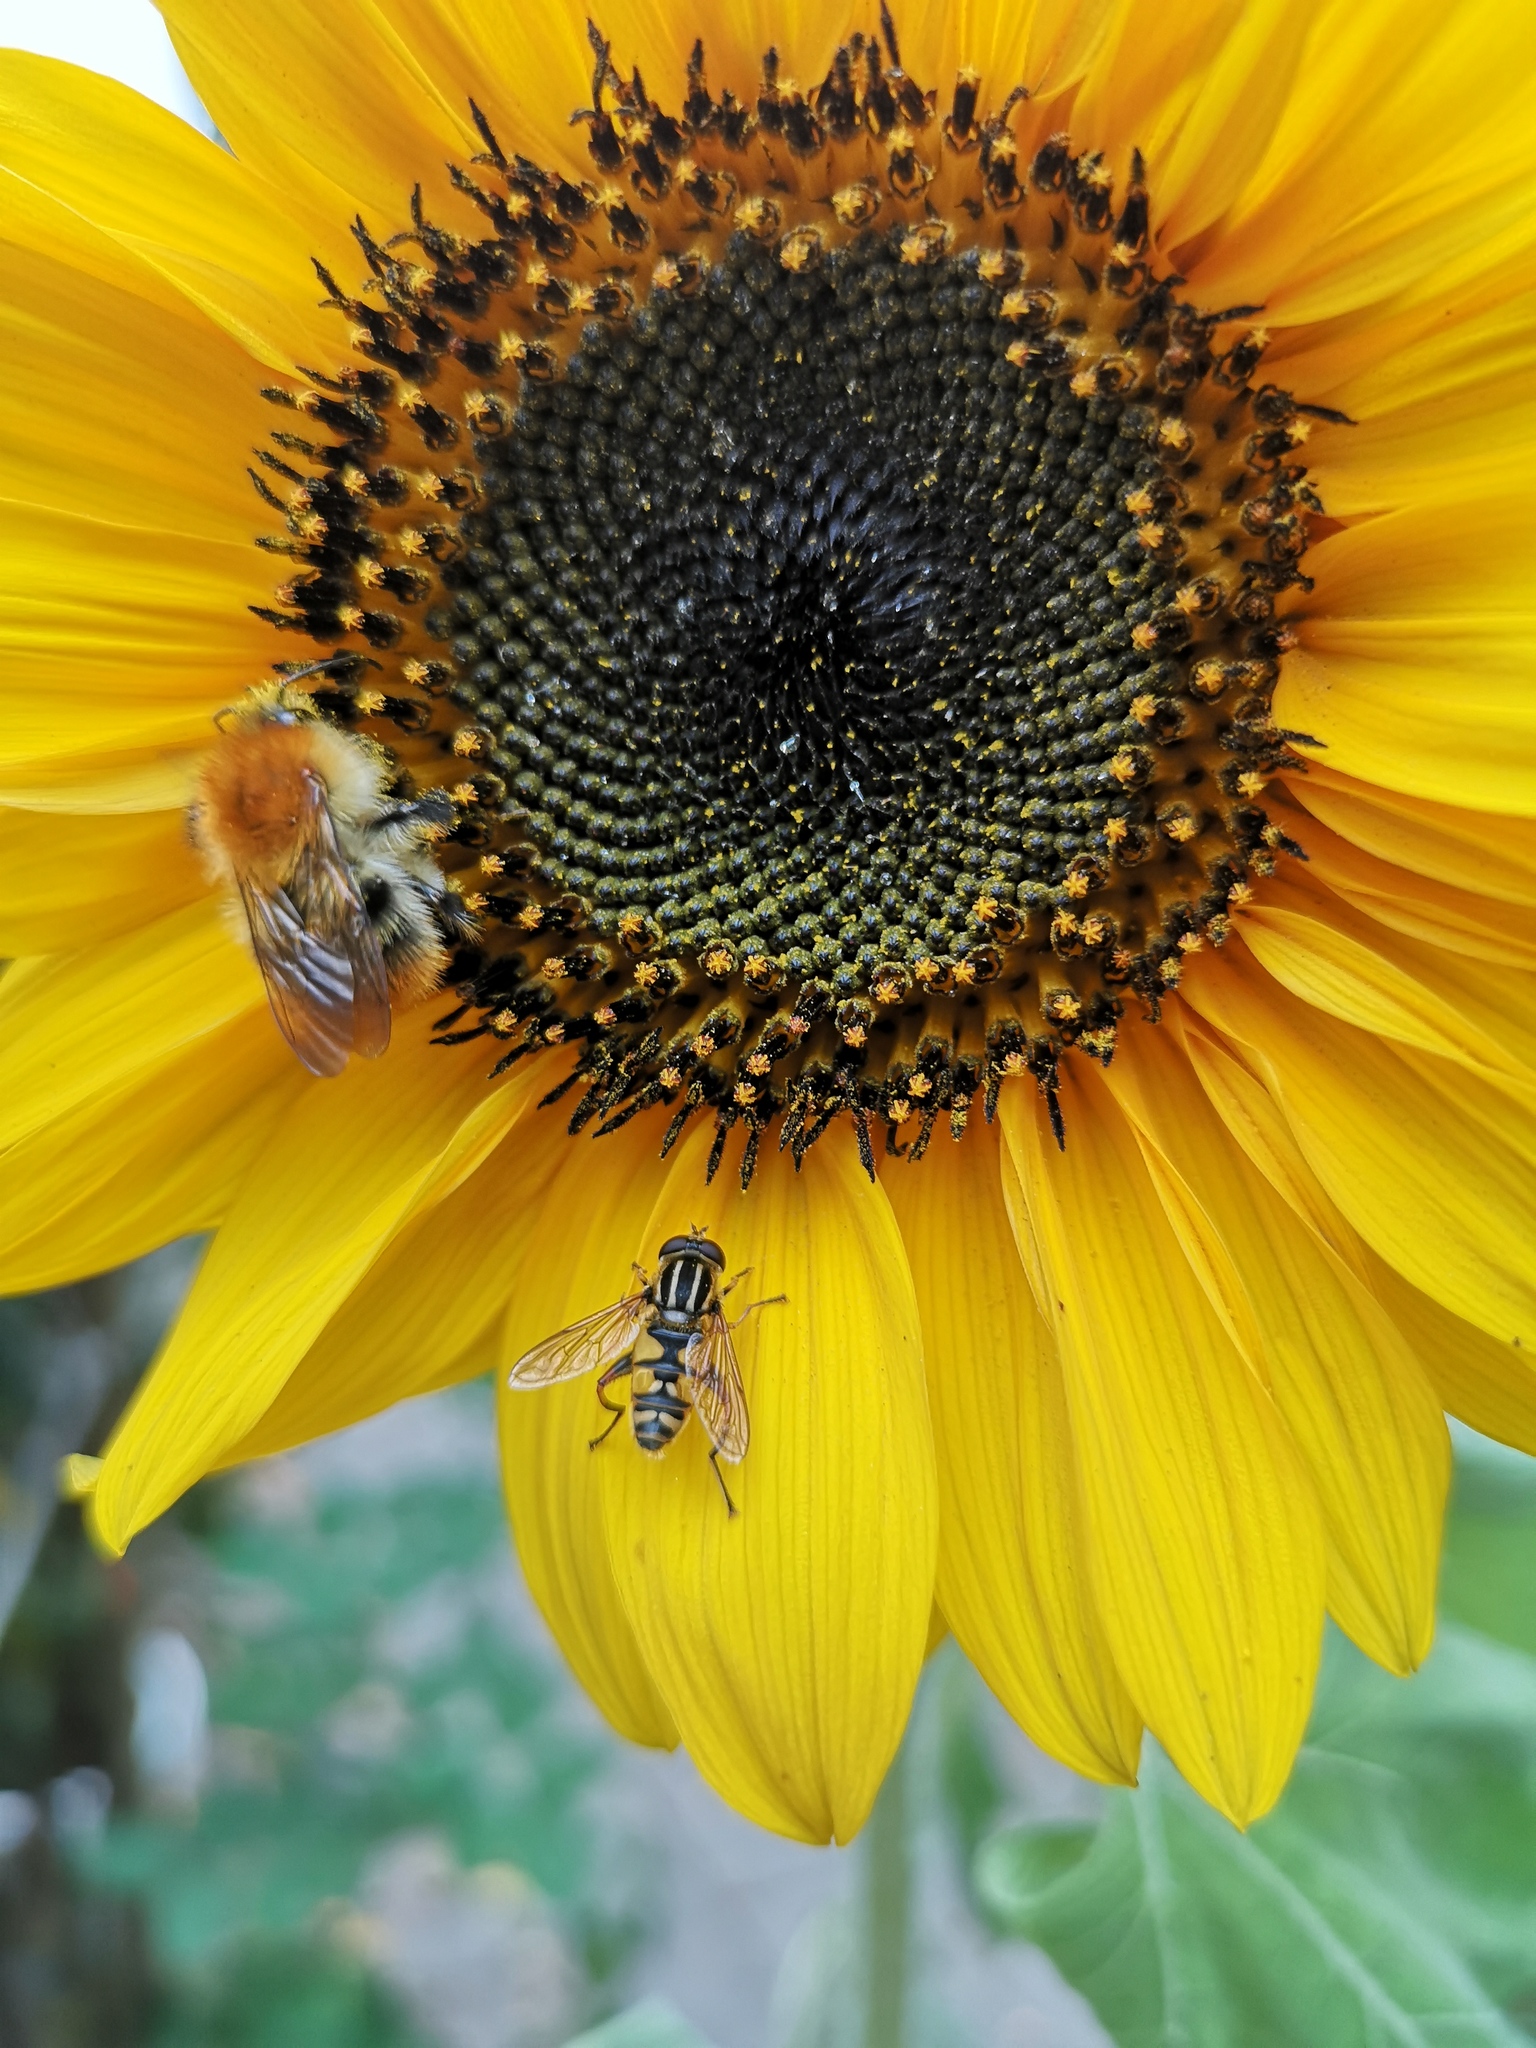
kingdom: Animalia
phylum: Arthropoda
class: Insecta
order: Diptera
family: Syrphidae
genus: Helophilus
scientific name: Helophilus pendulus
